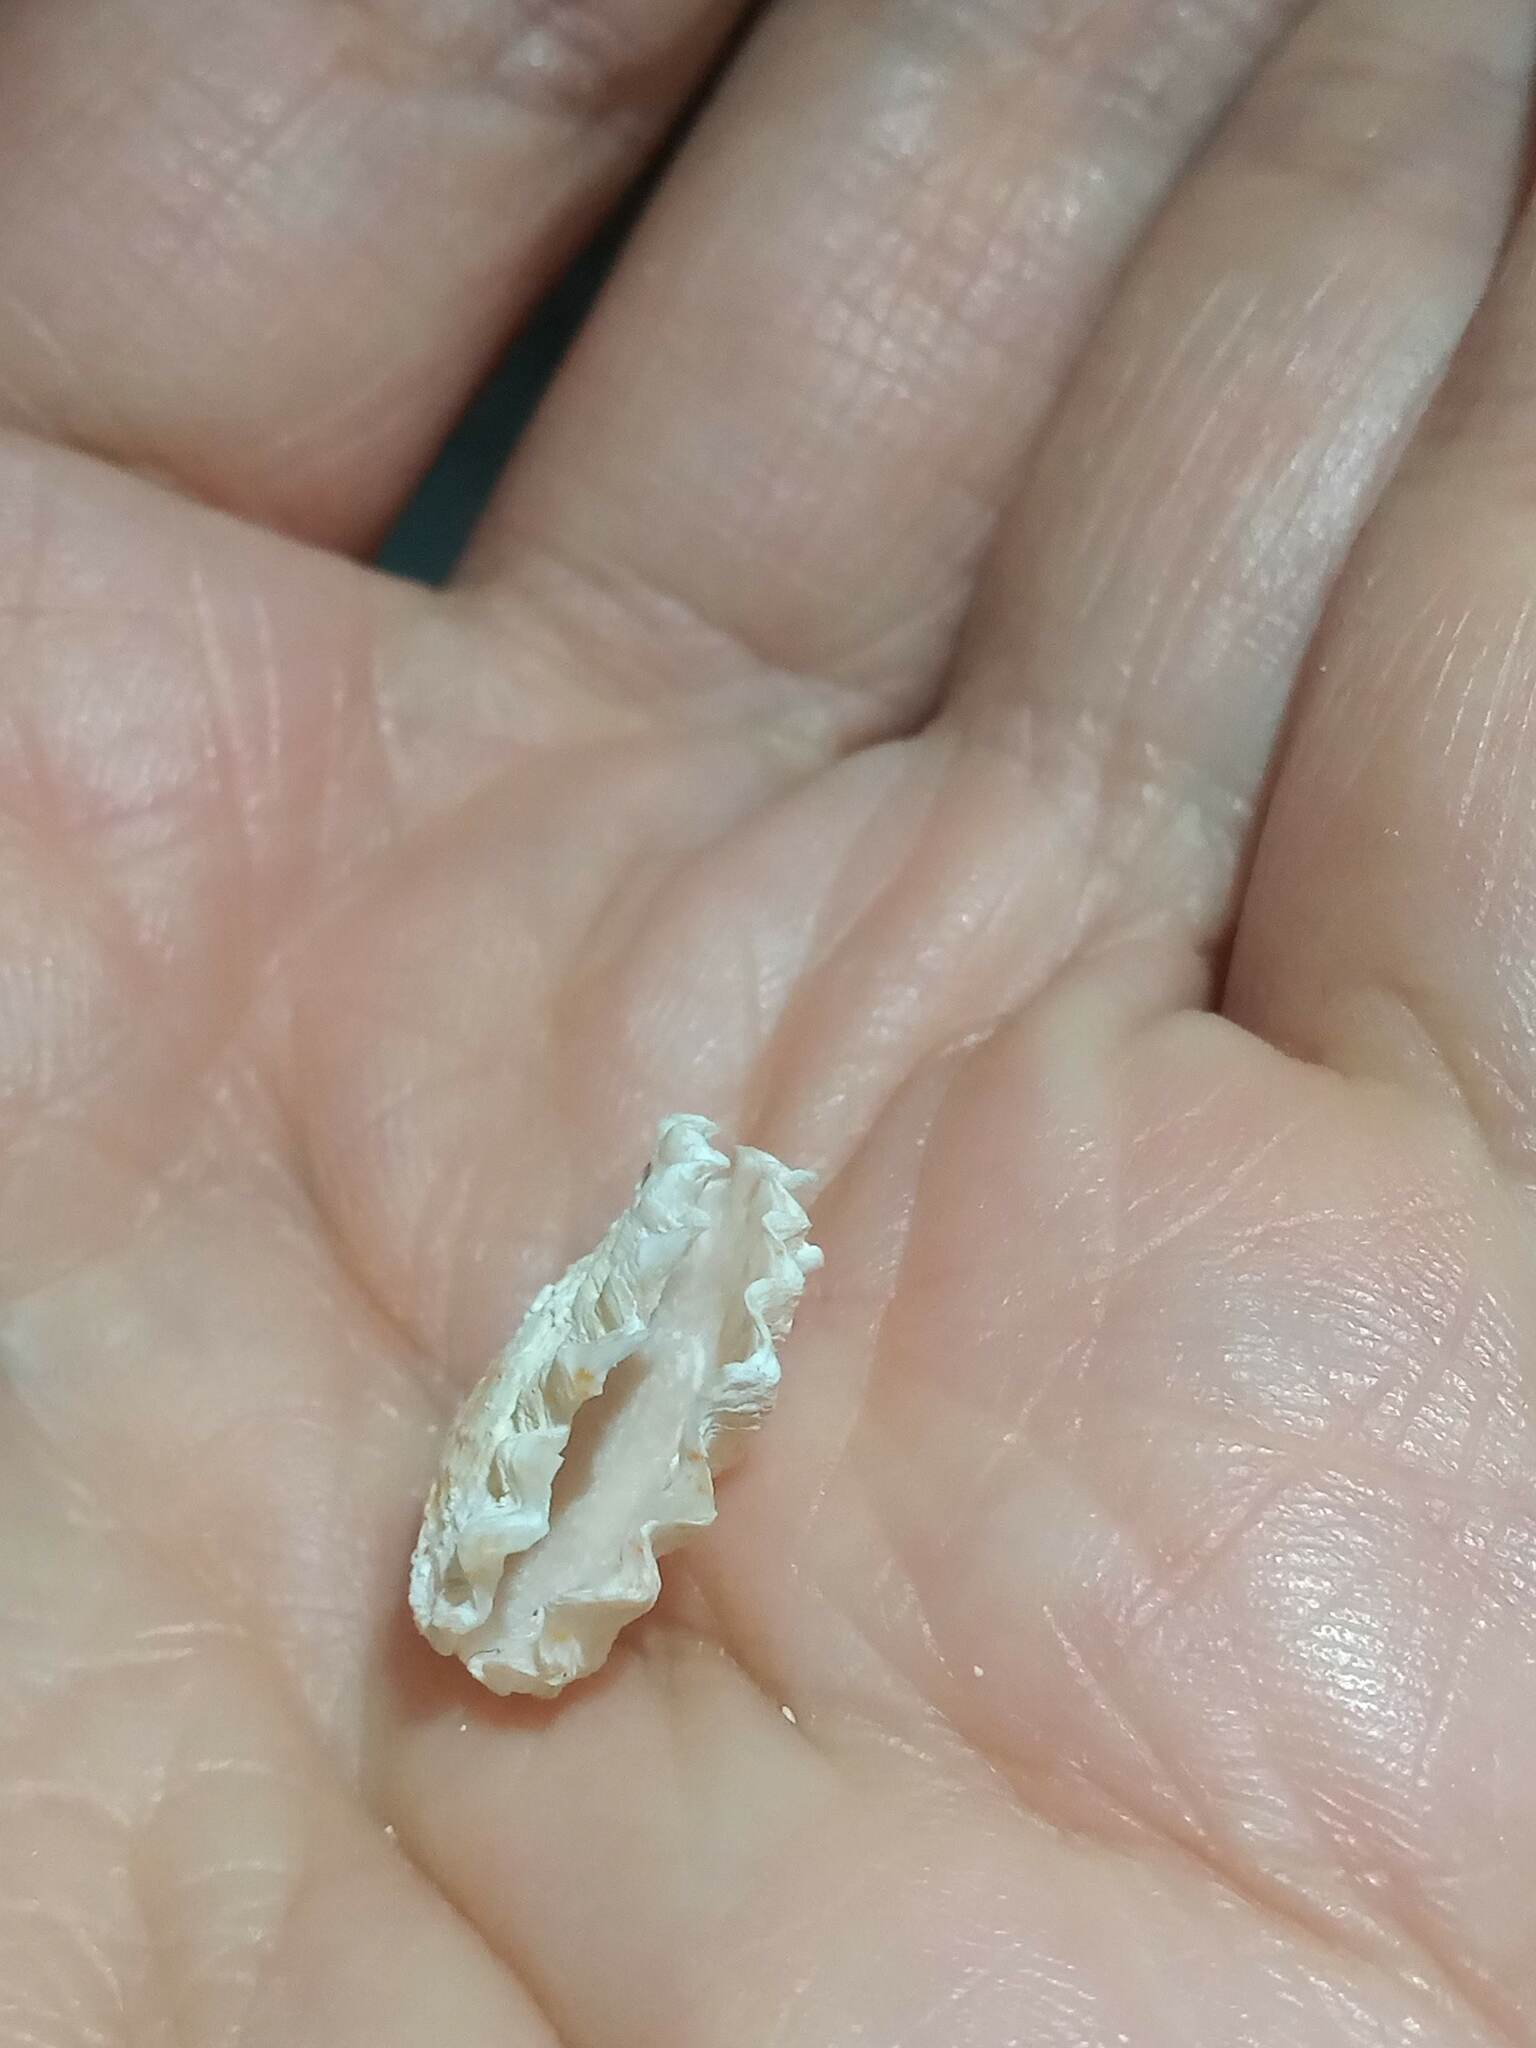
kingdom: Animalia
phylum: Mollusca
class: Bivalvia
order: Pectinida
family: Plicatulidae
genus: Plicatula
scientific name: Plicatula gibbosa
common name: Atlantic kitten's paw
